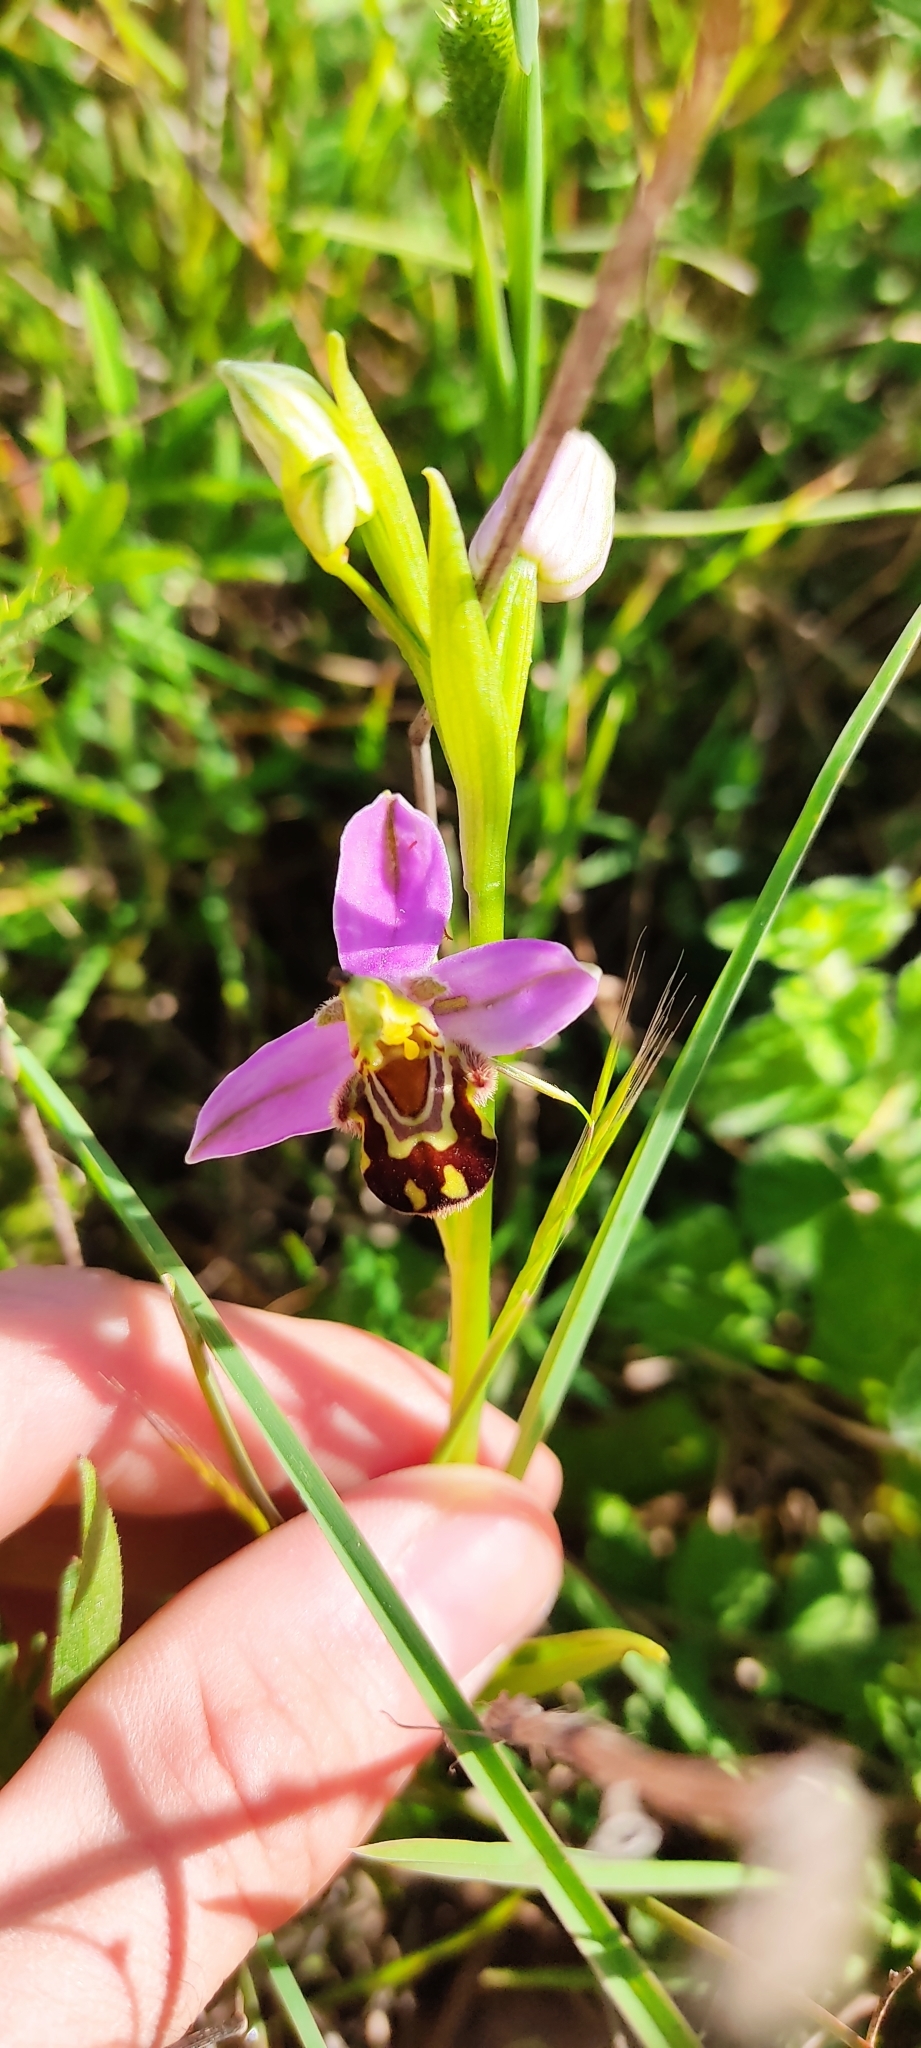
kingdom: Plantae
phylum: Tracheophyta
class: Liliopsida
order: Asparagales
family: Orchidaceae
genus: Ophrys
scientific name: Ophrys apifera
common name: Bee orchid
